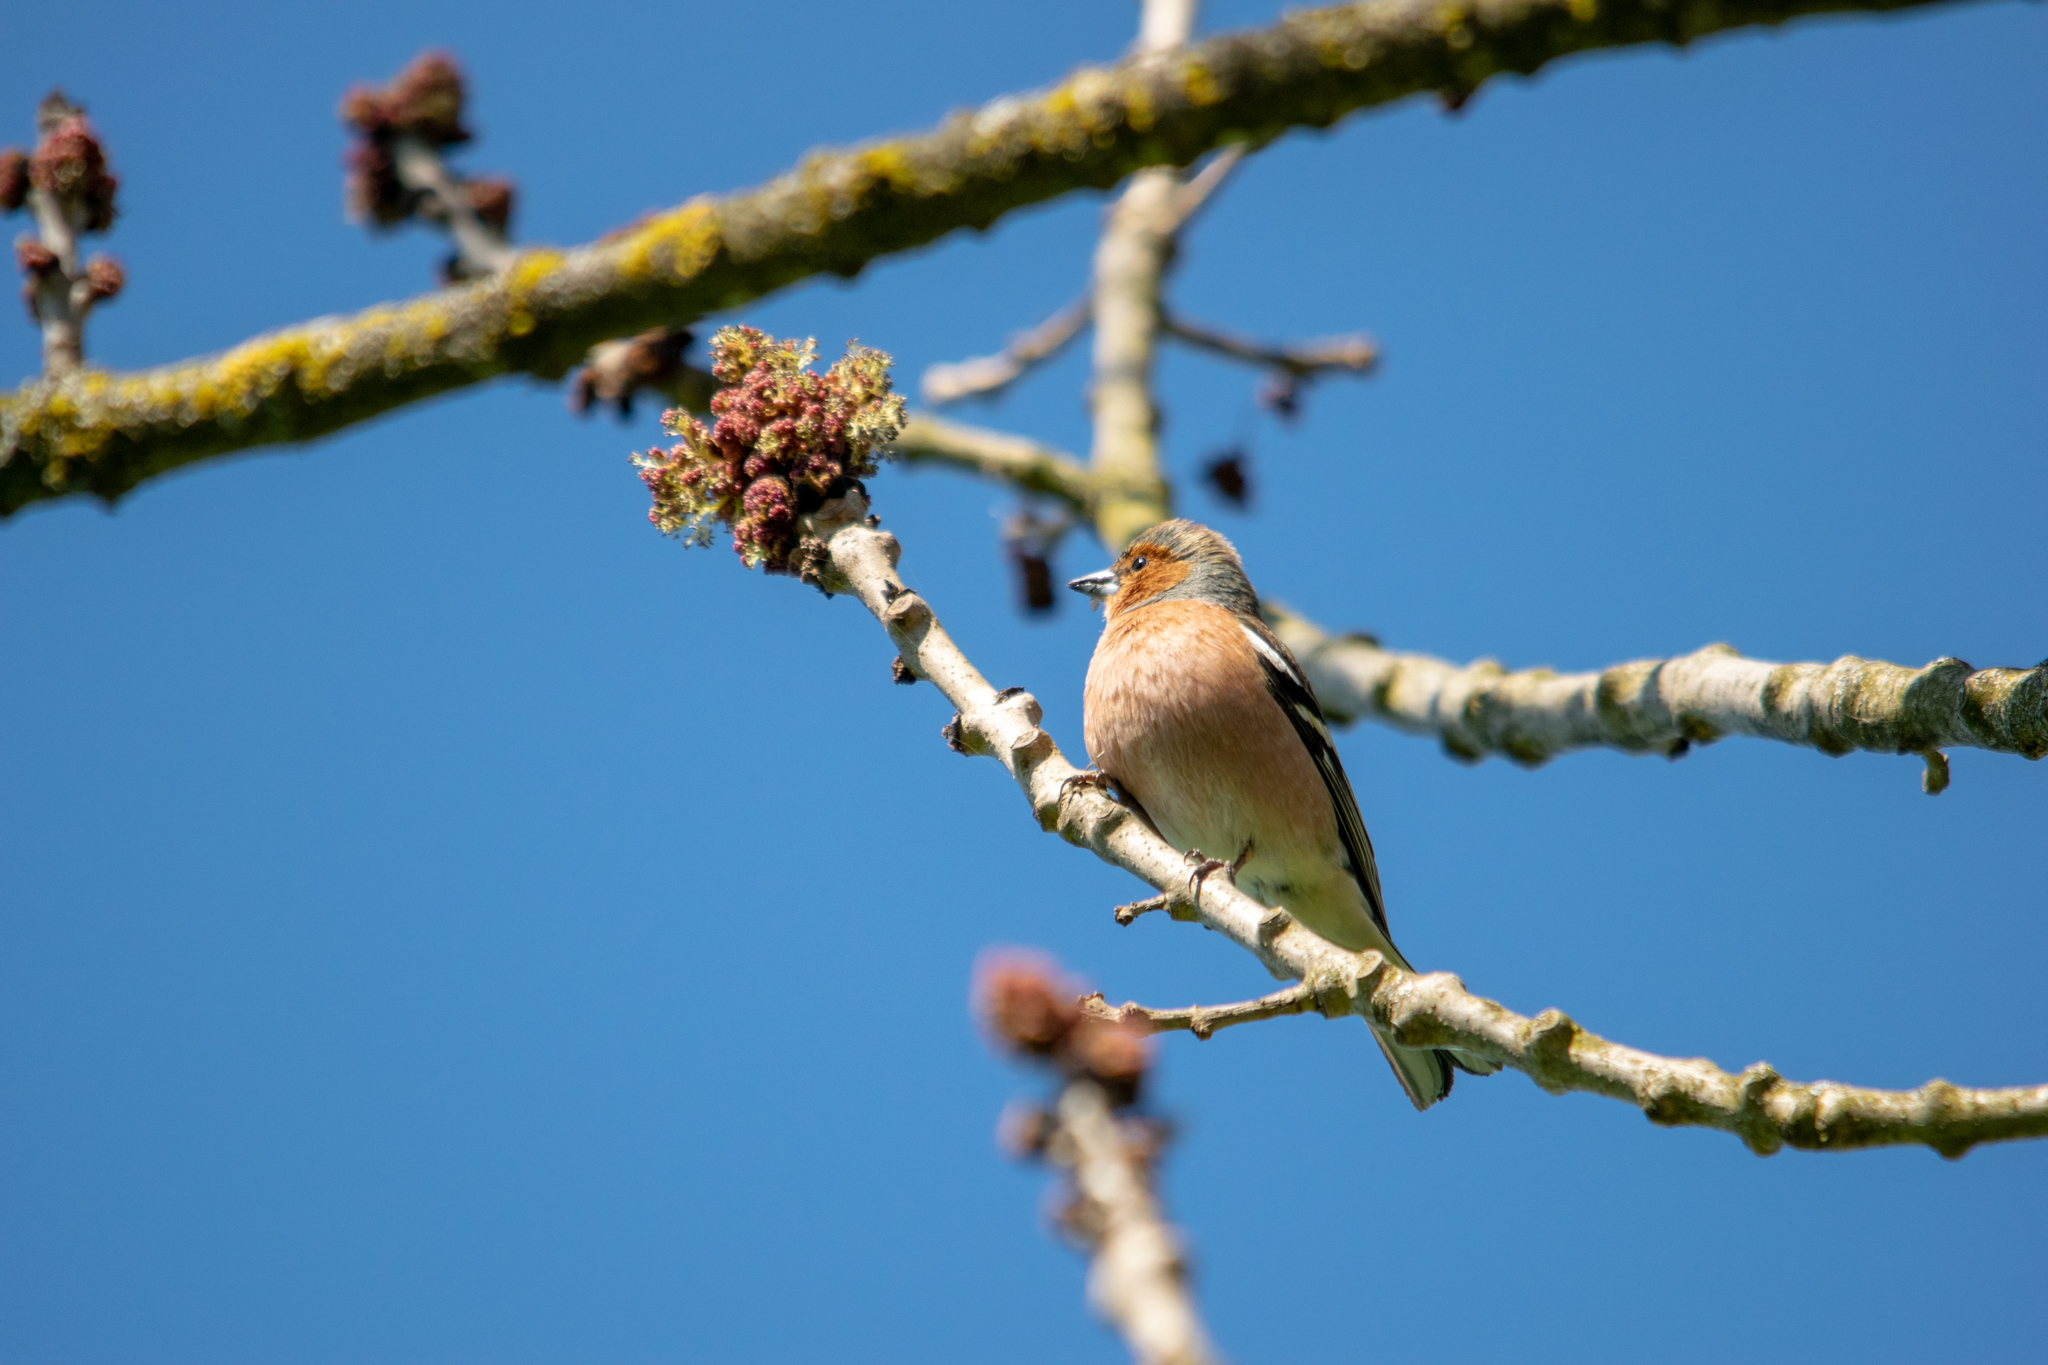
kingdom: Animalia
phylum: Chordata
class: Aves
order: Passeriformes
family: Fringillidae
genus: Fringilla
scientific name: Fringilla coelebs
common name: Common chaffinch
